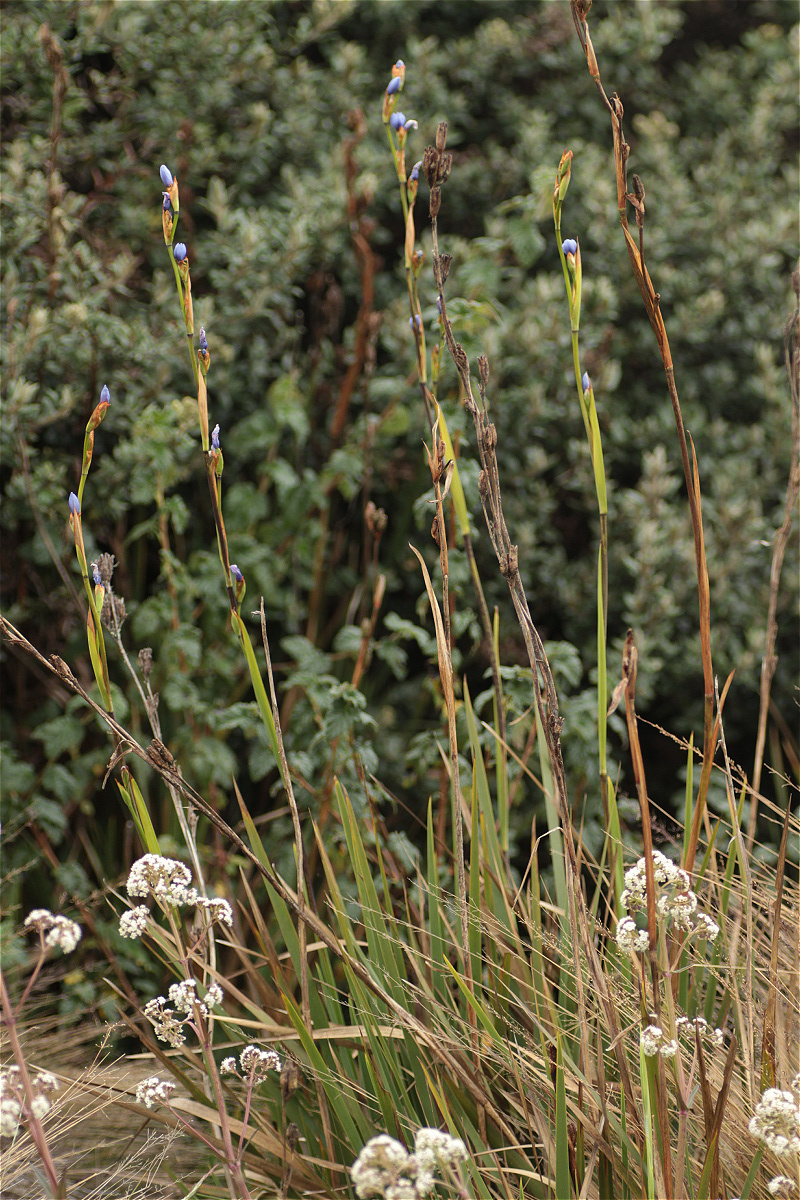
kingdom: Plantae
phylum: Tracheophyta
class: Liliopsida
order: Asparagales
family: Iridaceae
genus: Orthrosanthus
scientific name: Orthrosanthus chimboracensis
